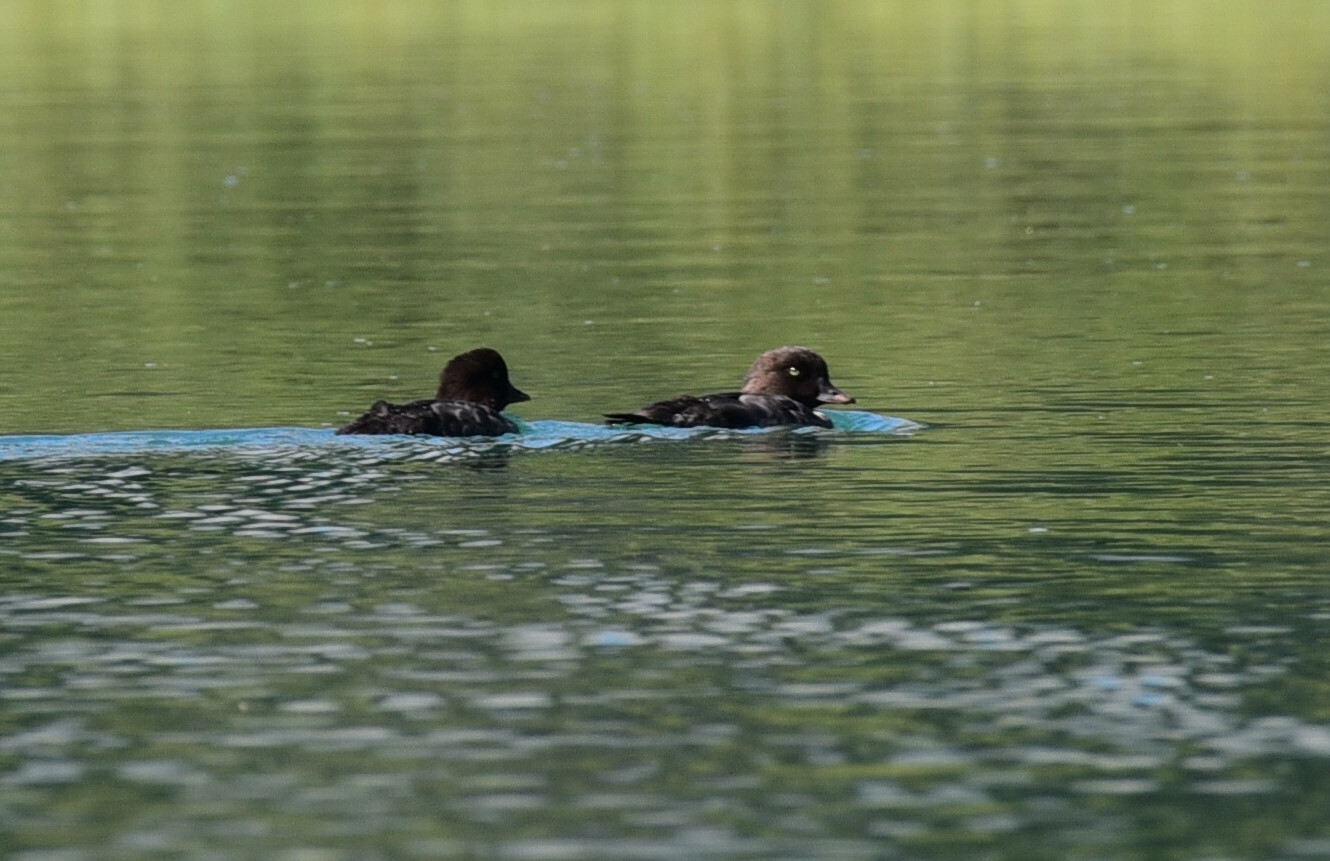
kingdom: Animalia
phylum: Chordata
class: Aves
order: Anseriformes
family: Anatidae
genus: Bucephala
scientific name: Bucephala islandica
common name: Barrow's goldeneye
